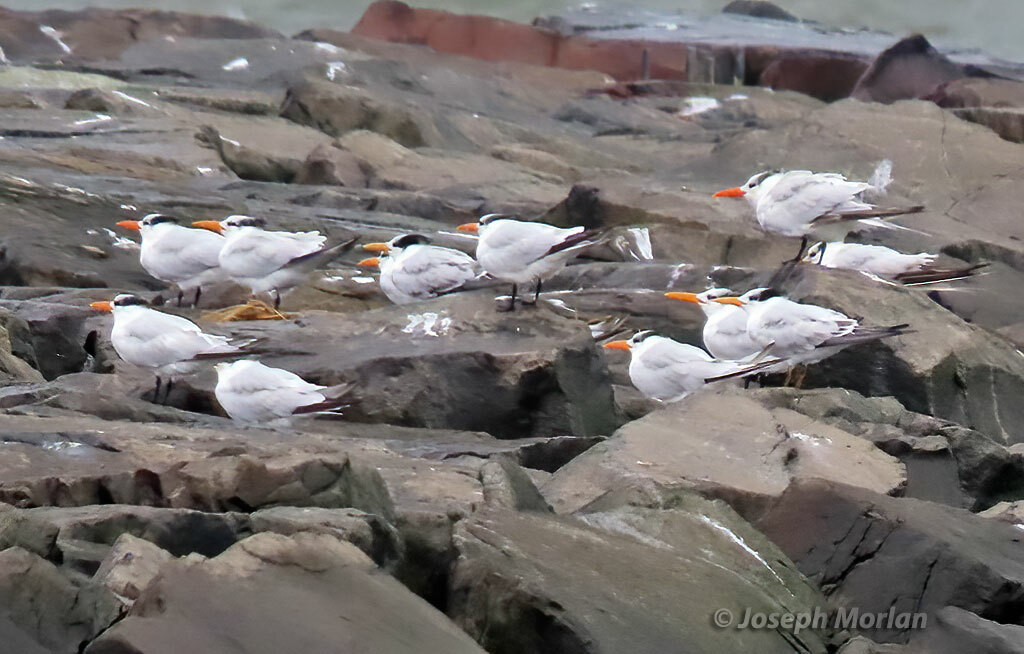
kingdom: Animalia
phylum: Chordata
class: Aves
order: Charadriiformes
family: Laridae
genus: Thalasseus
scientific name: Thalasseus maximus
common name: Royal tern
